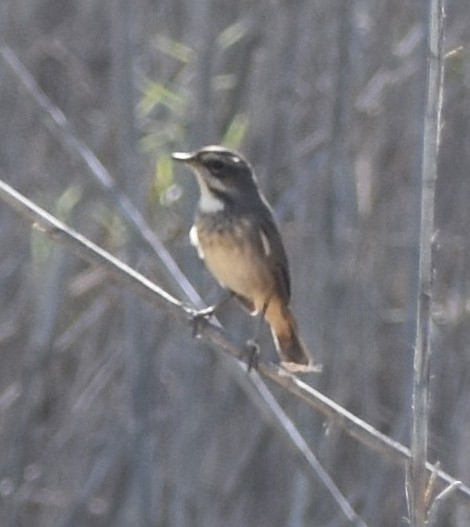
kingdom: Animalia
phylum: Chordata
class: Aves
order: Passeriformes
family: Muscicapidae
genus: Luscinia
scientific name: Luscinia svecica
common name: Bluethroat
